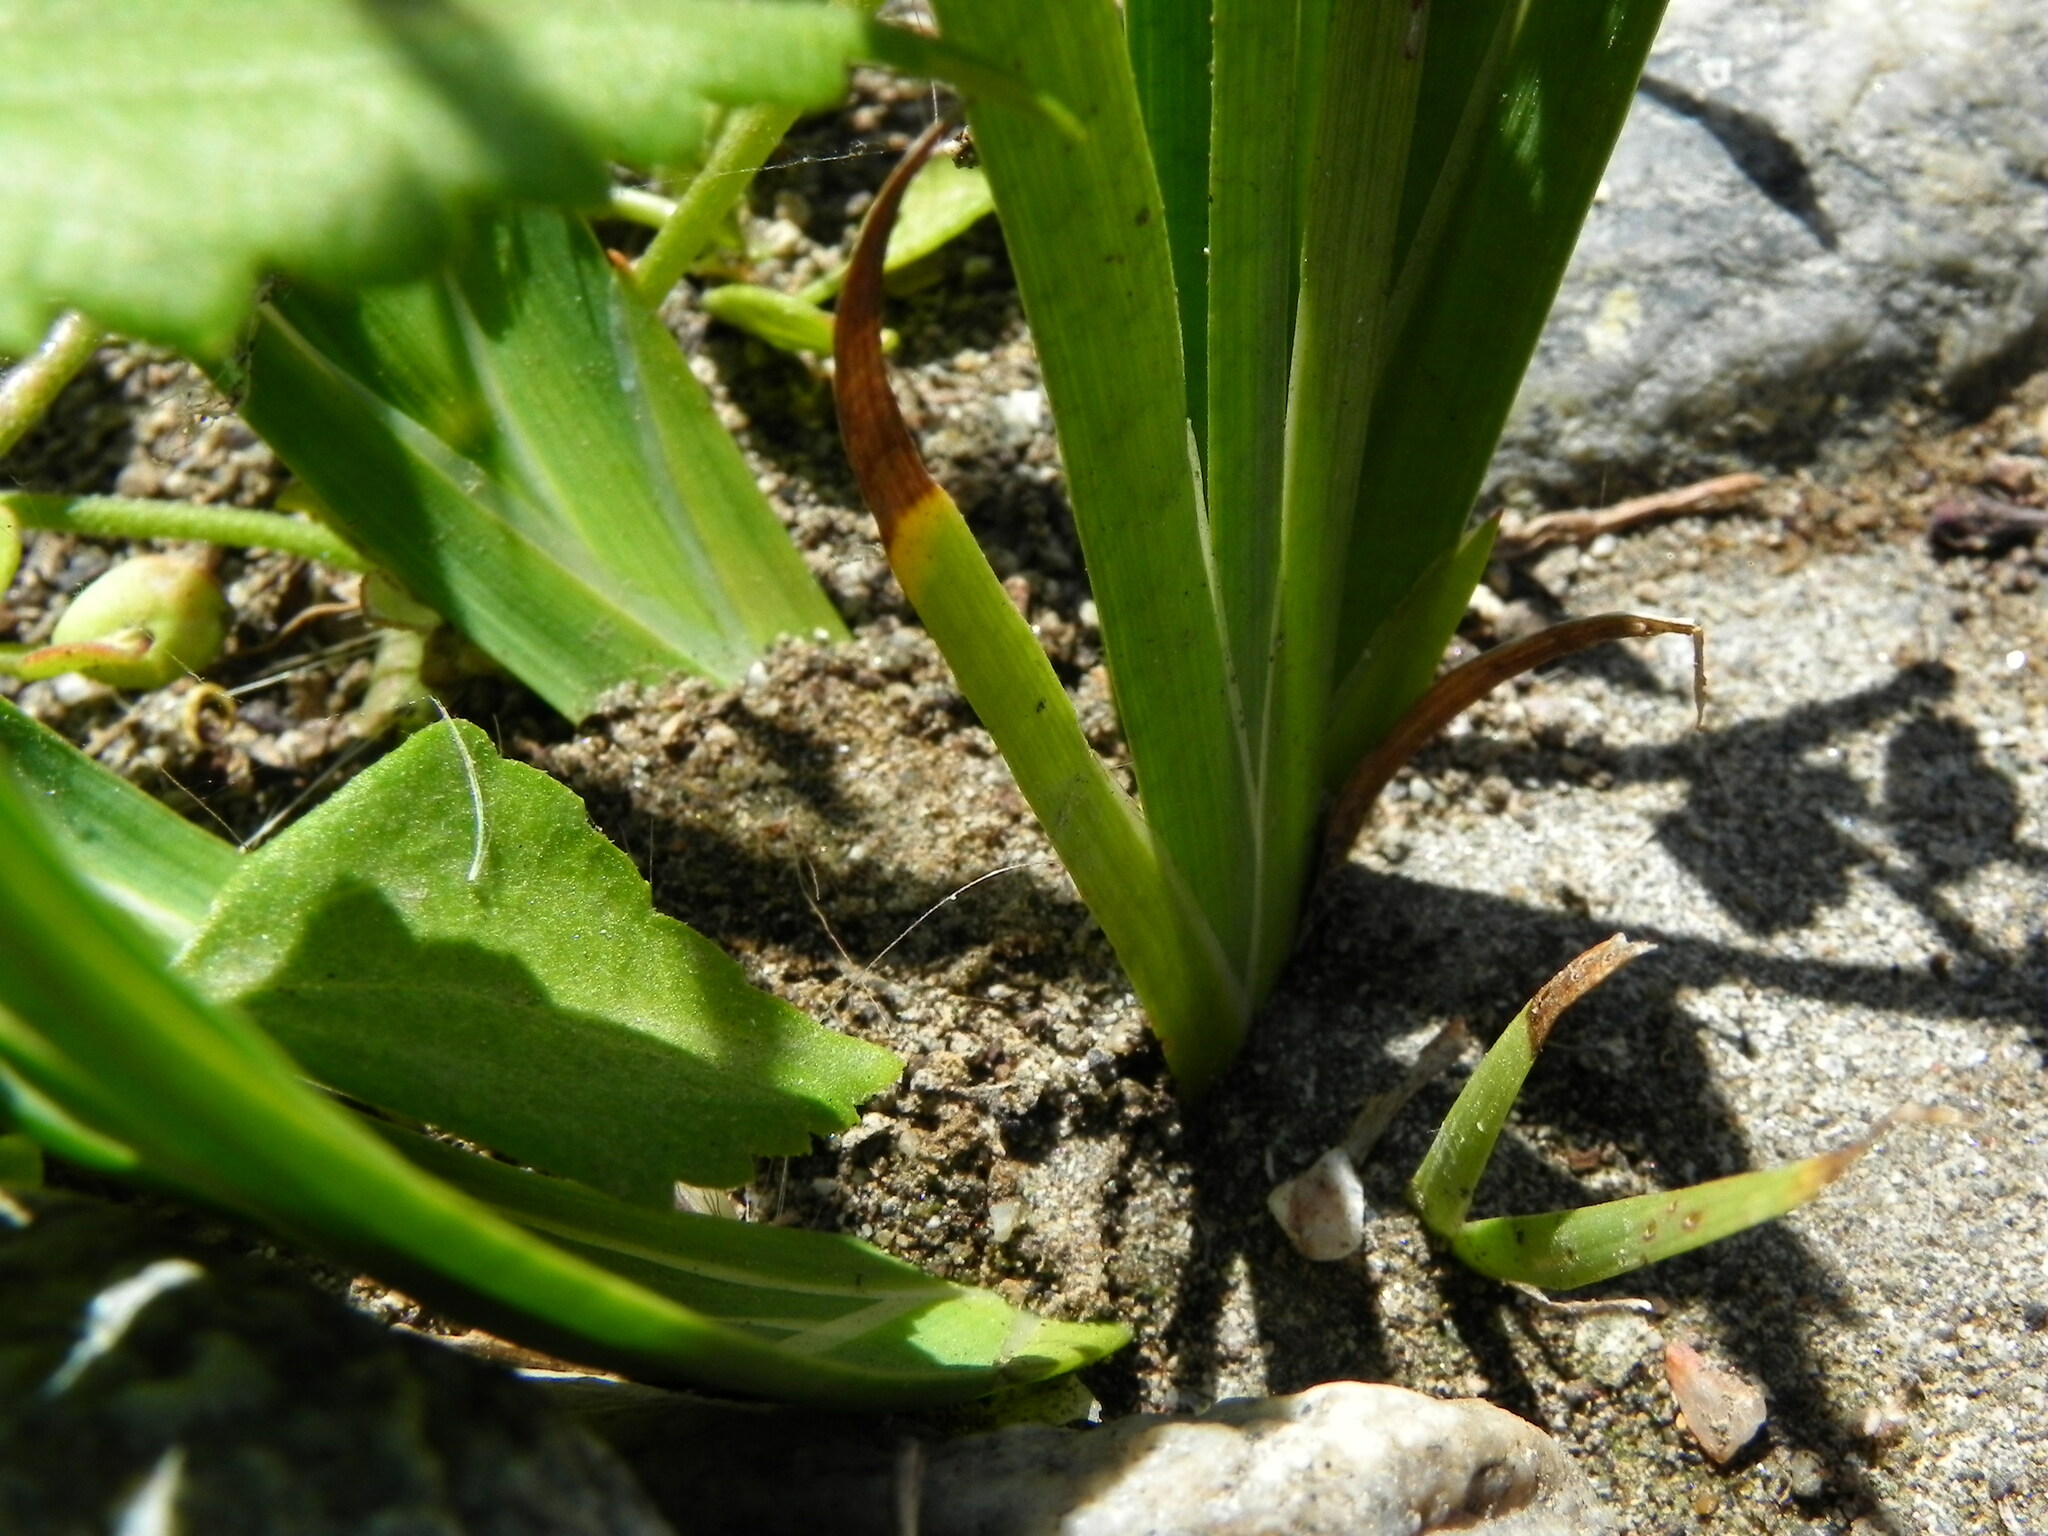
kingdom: Plantae
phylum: Tracheophyta
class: Liliopsida
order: Poales
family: Juncaceae
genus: Juncus
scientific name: Juncus xiphioides
